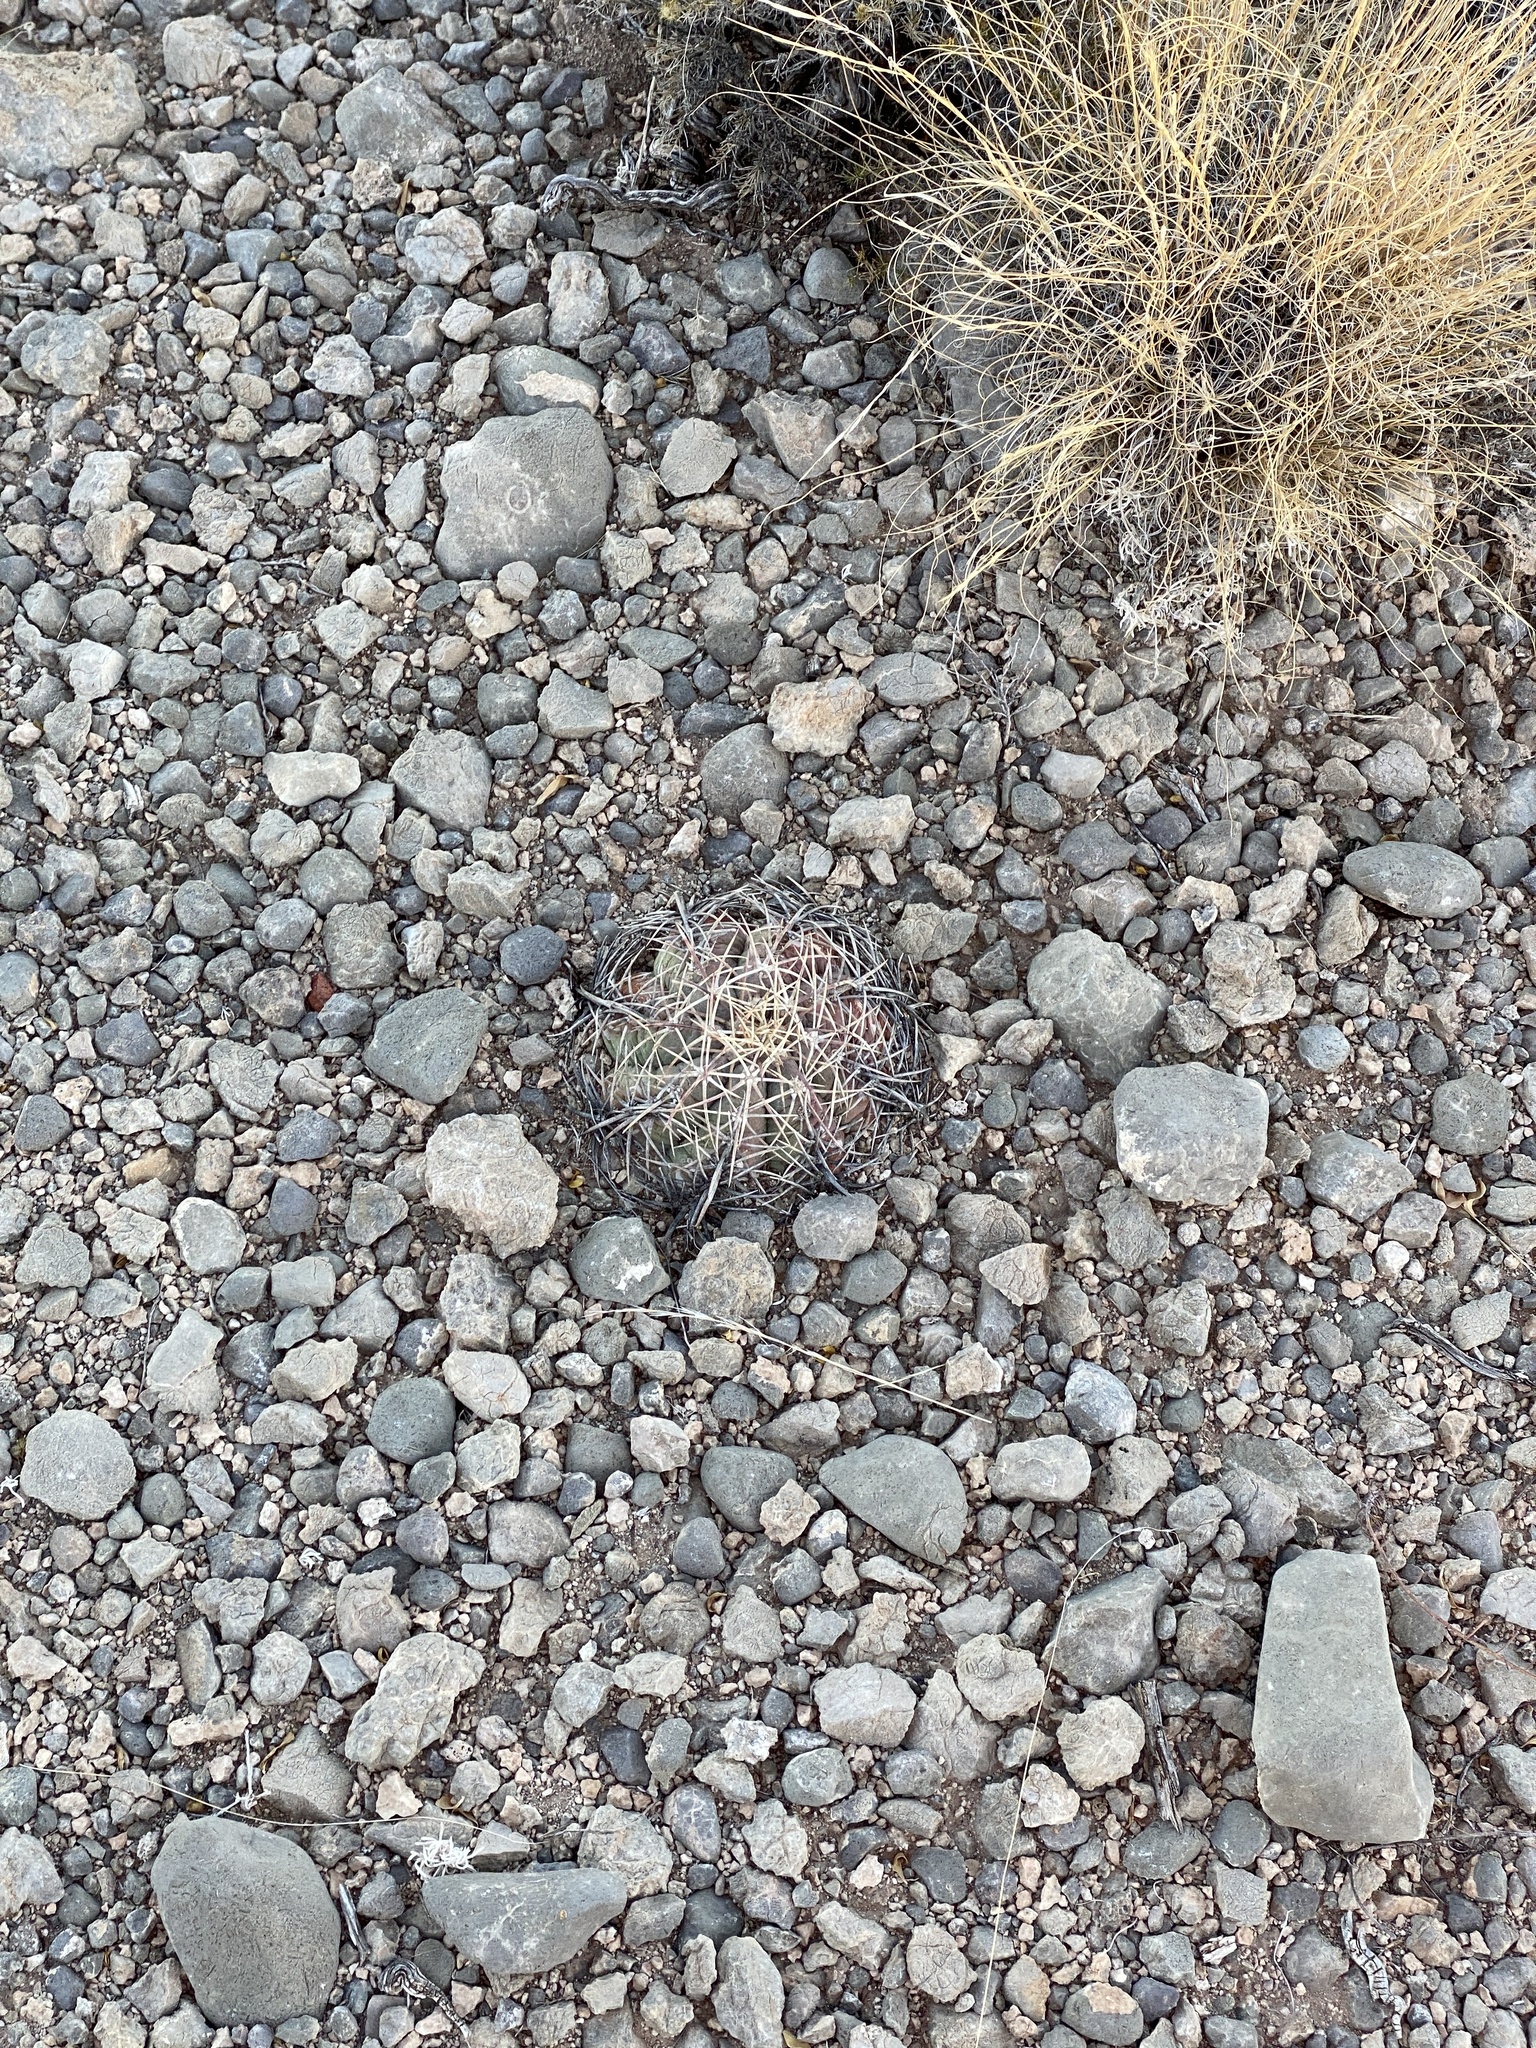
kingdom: Plantae
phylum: Tracheophyta
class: Magnoliopsida
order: Caryophyllales
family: Cactaceae
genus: Echinocactus
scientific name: Echinocactus horizonthalonius
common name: Devilshead
